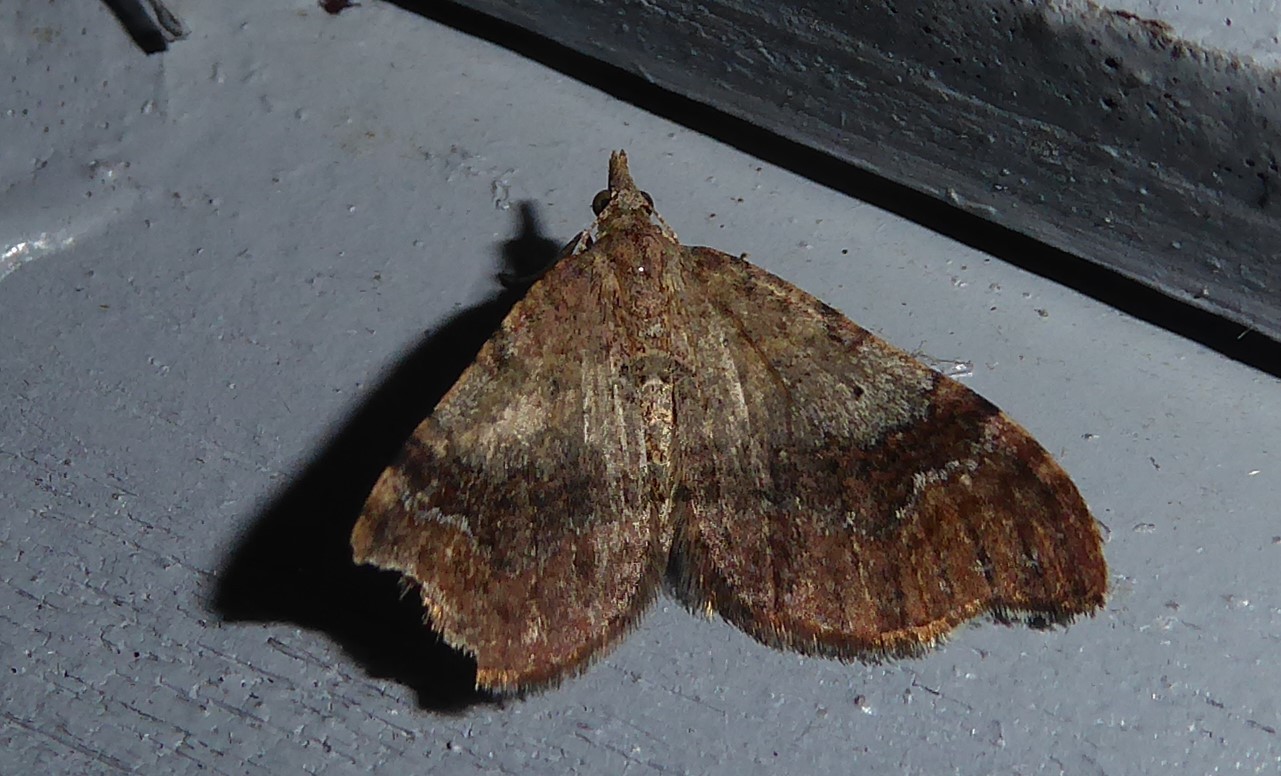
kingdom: Animalia
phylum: Arthropoda
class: Insecta
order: Lepidoptera
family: Geometridae
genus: Homodotis
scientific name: Homodotis megaspilata
